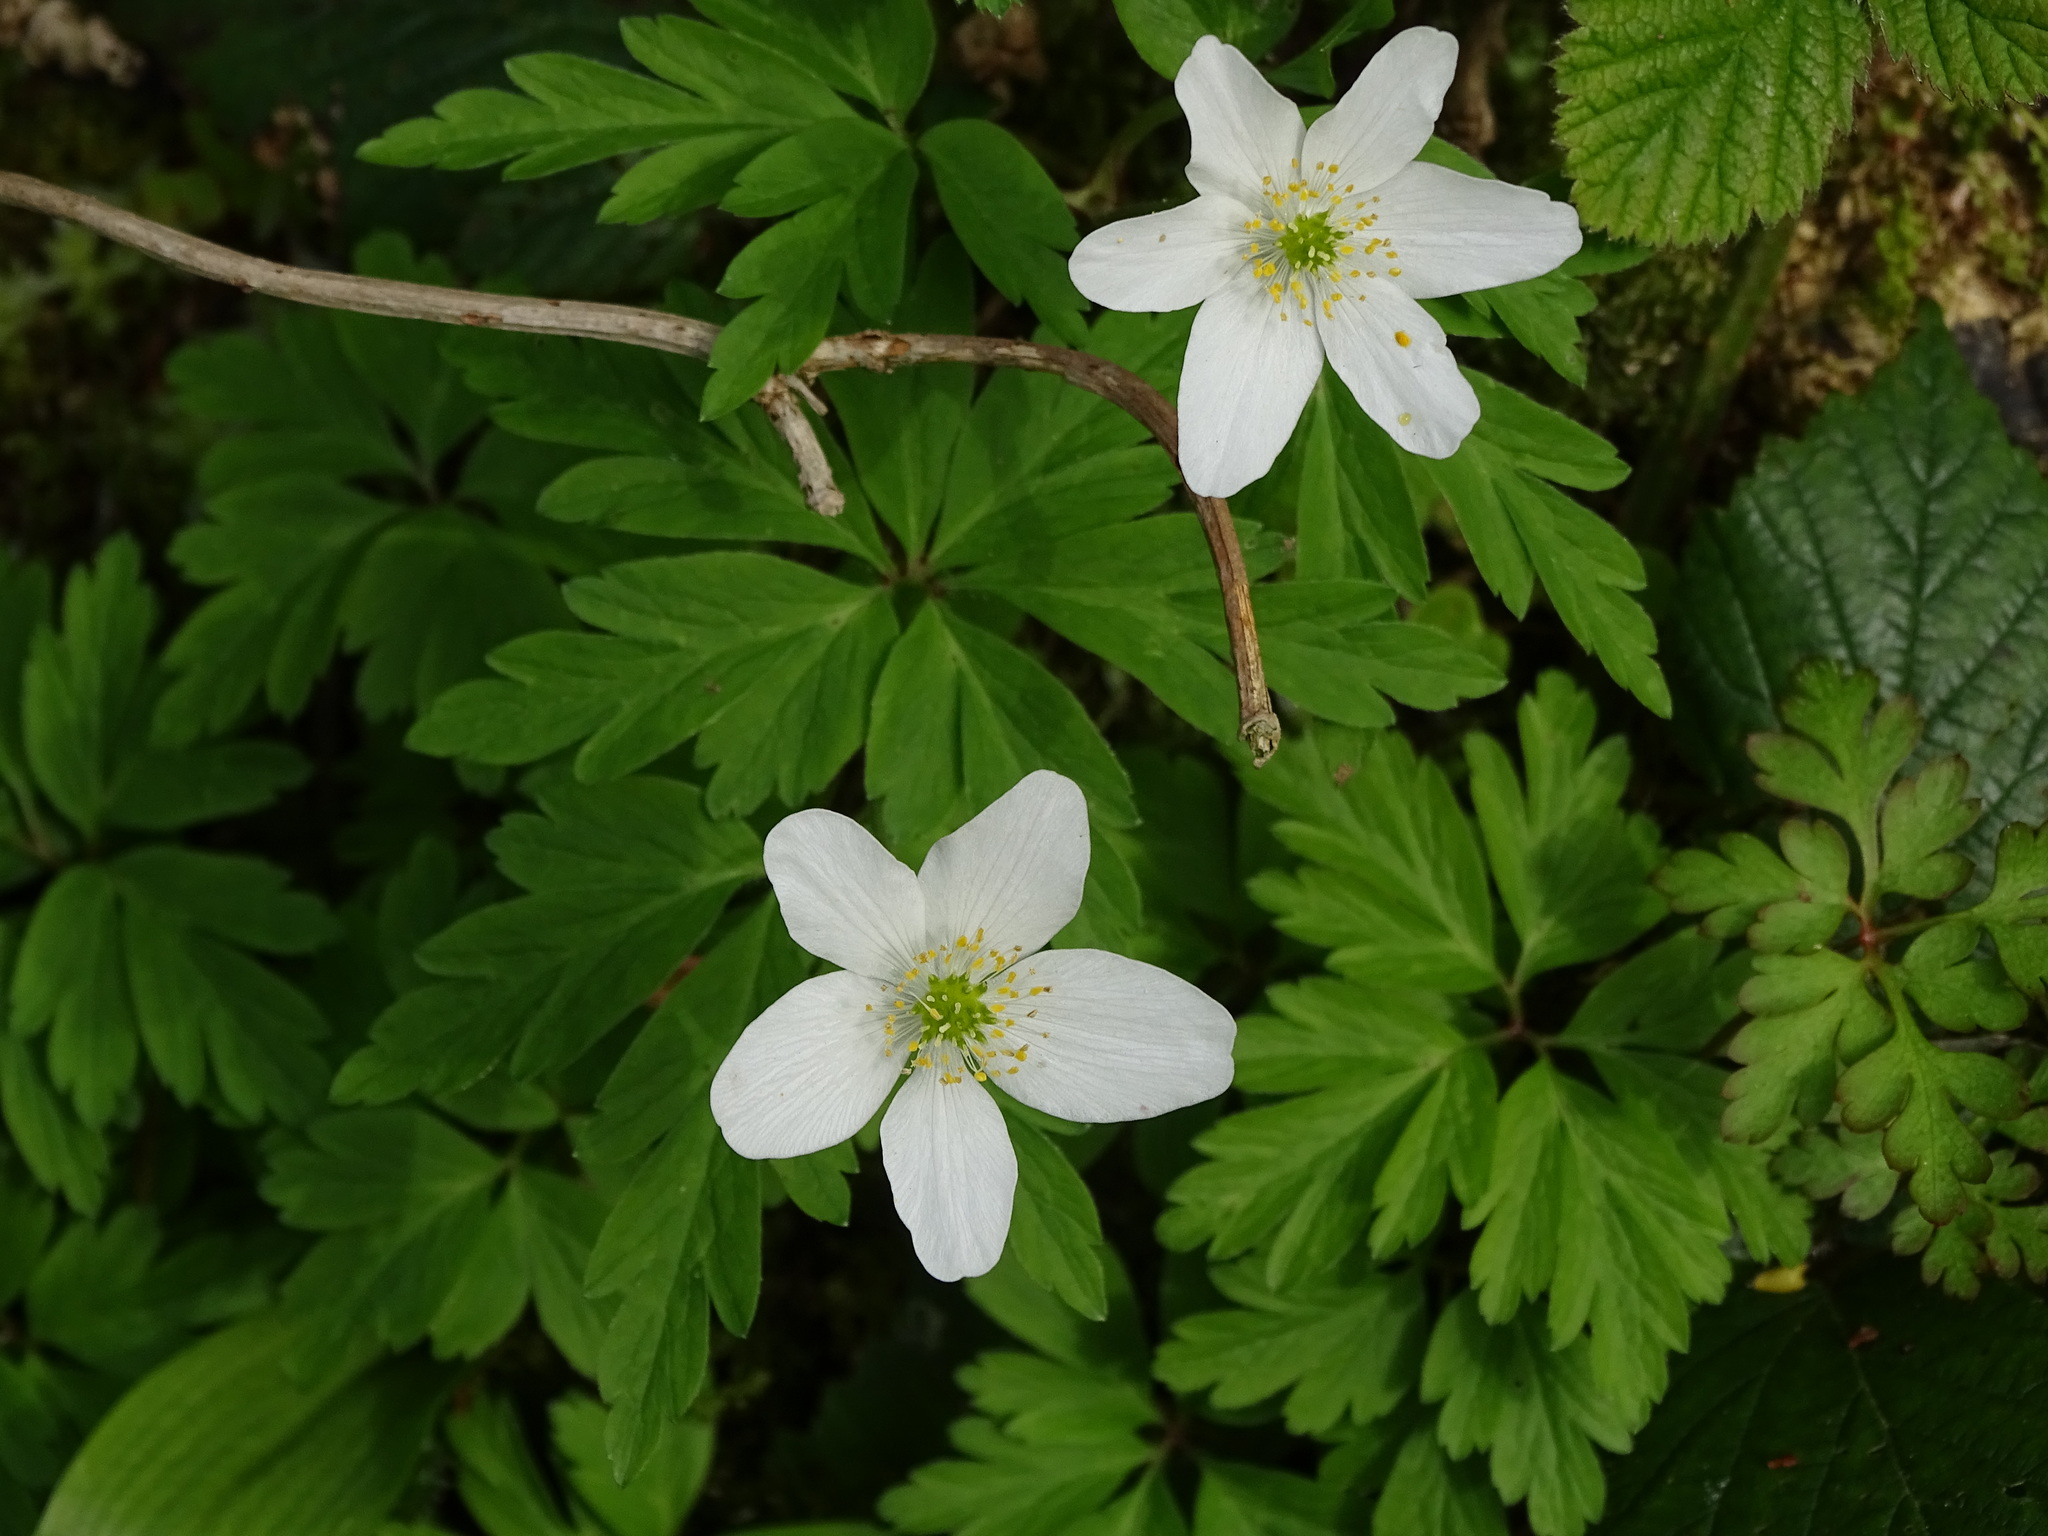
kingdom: Plantae
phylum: Tracheophyta
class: Magnoliopsida
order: Ranunculales
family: Ranunculaceae
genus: Anemone
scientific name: Anemone nemorosa
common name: Wood anemone
